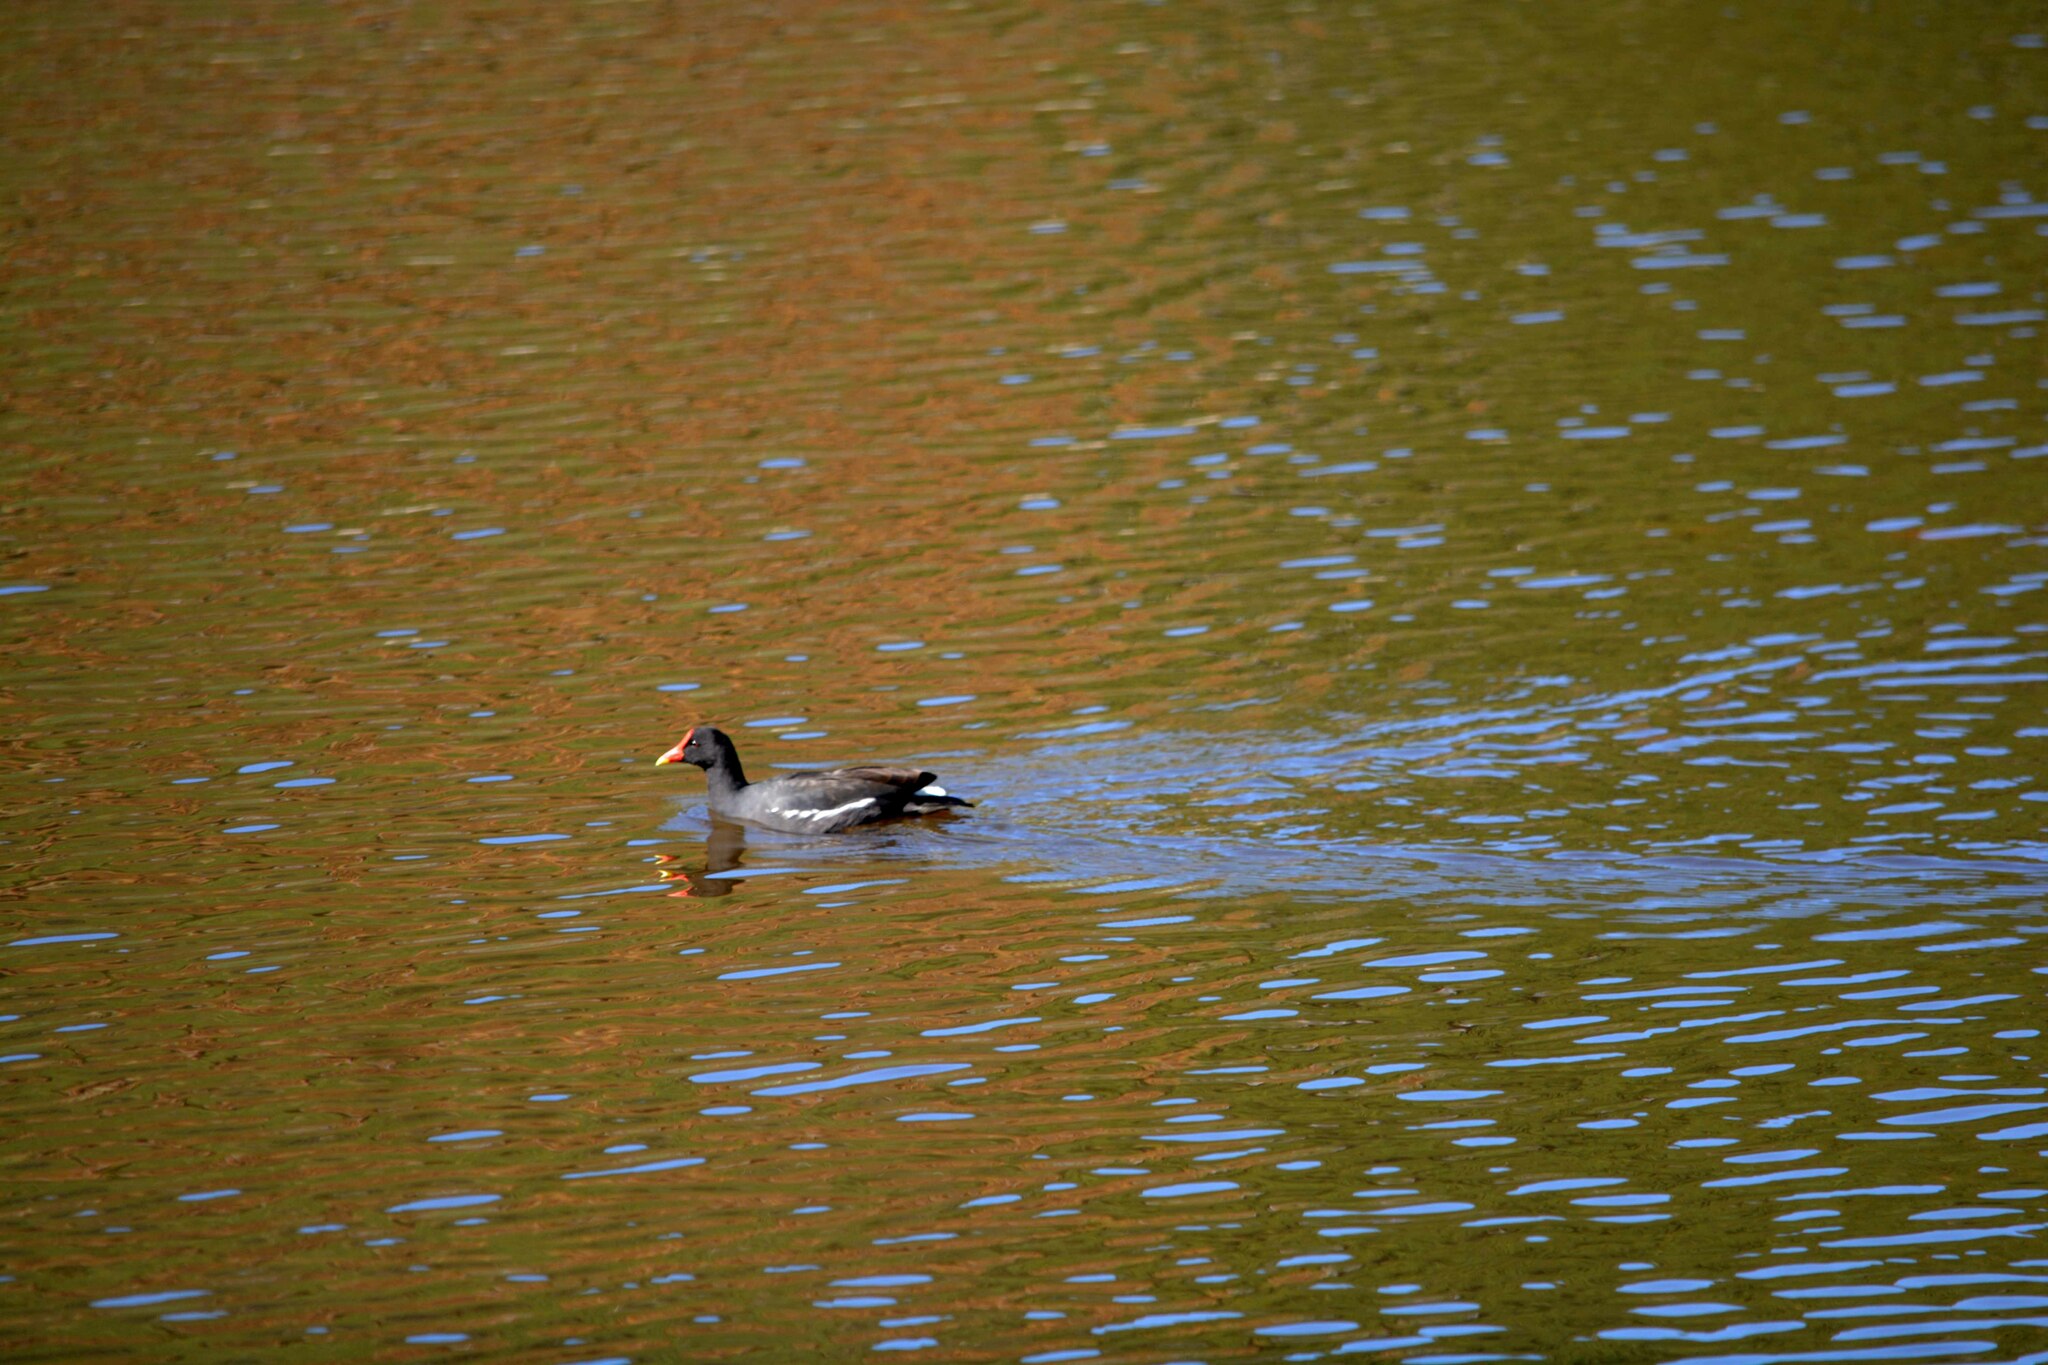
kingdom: Animalia
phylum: Chordata
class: Aves
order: Gruiformes
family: Rallidae
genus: Gallinula
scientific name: Gallinula chloropus
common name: Common moorhen
